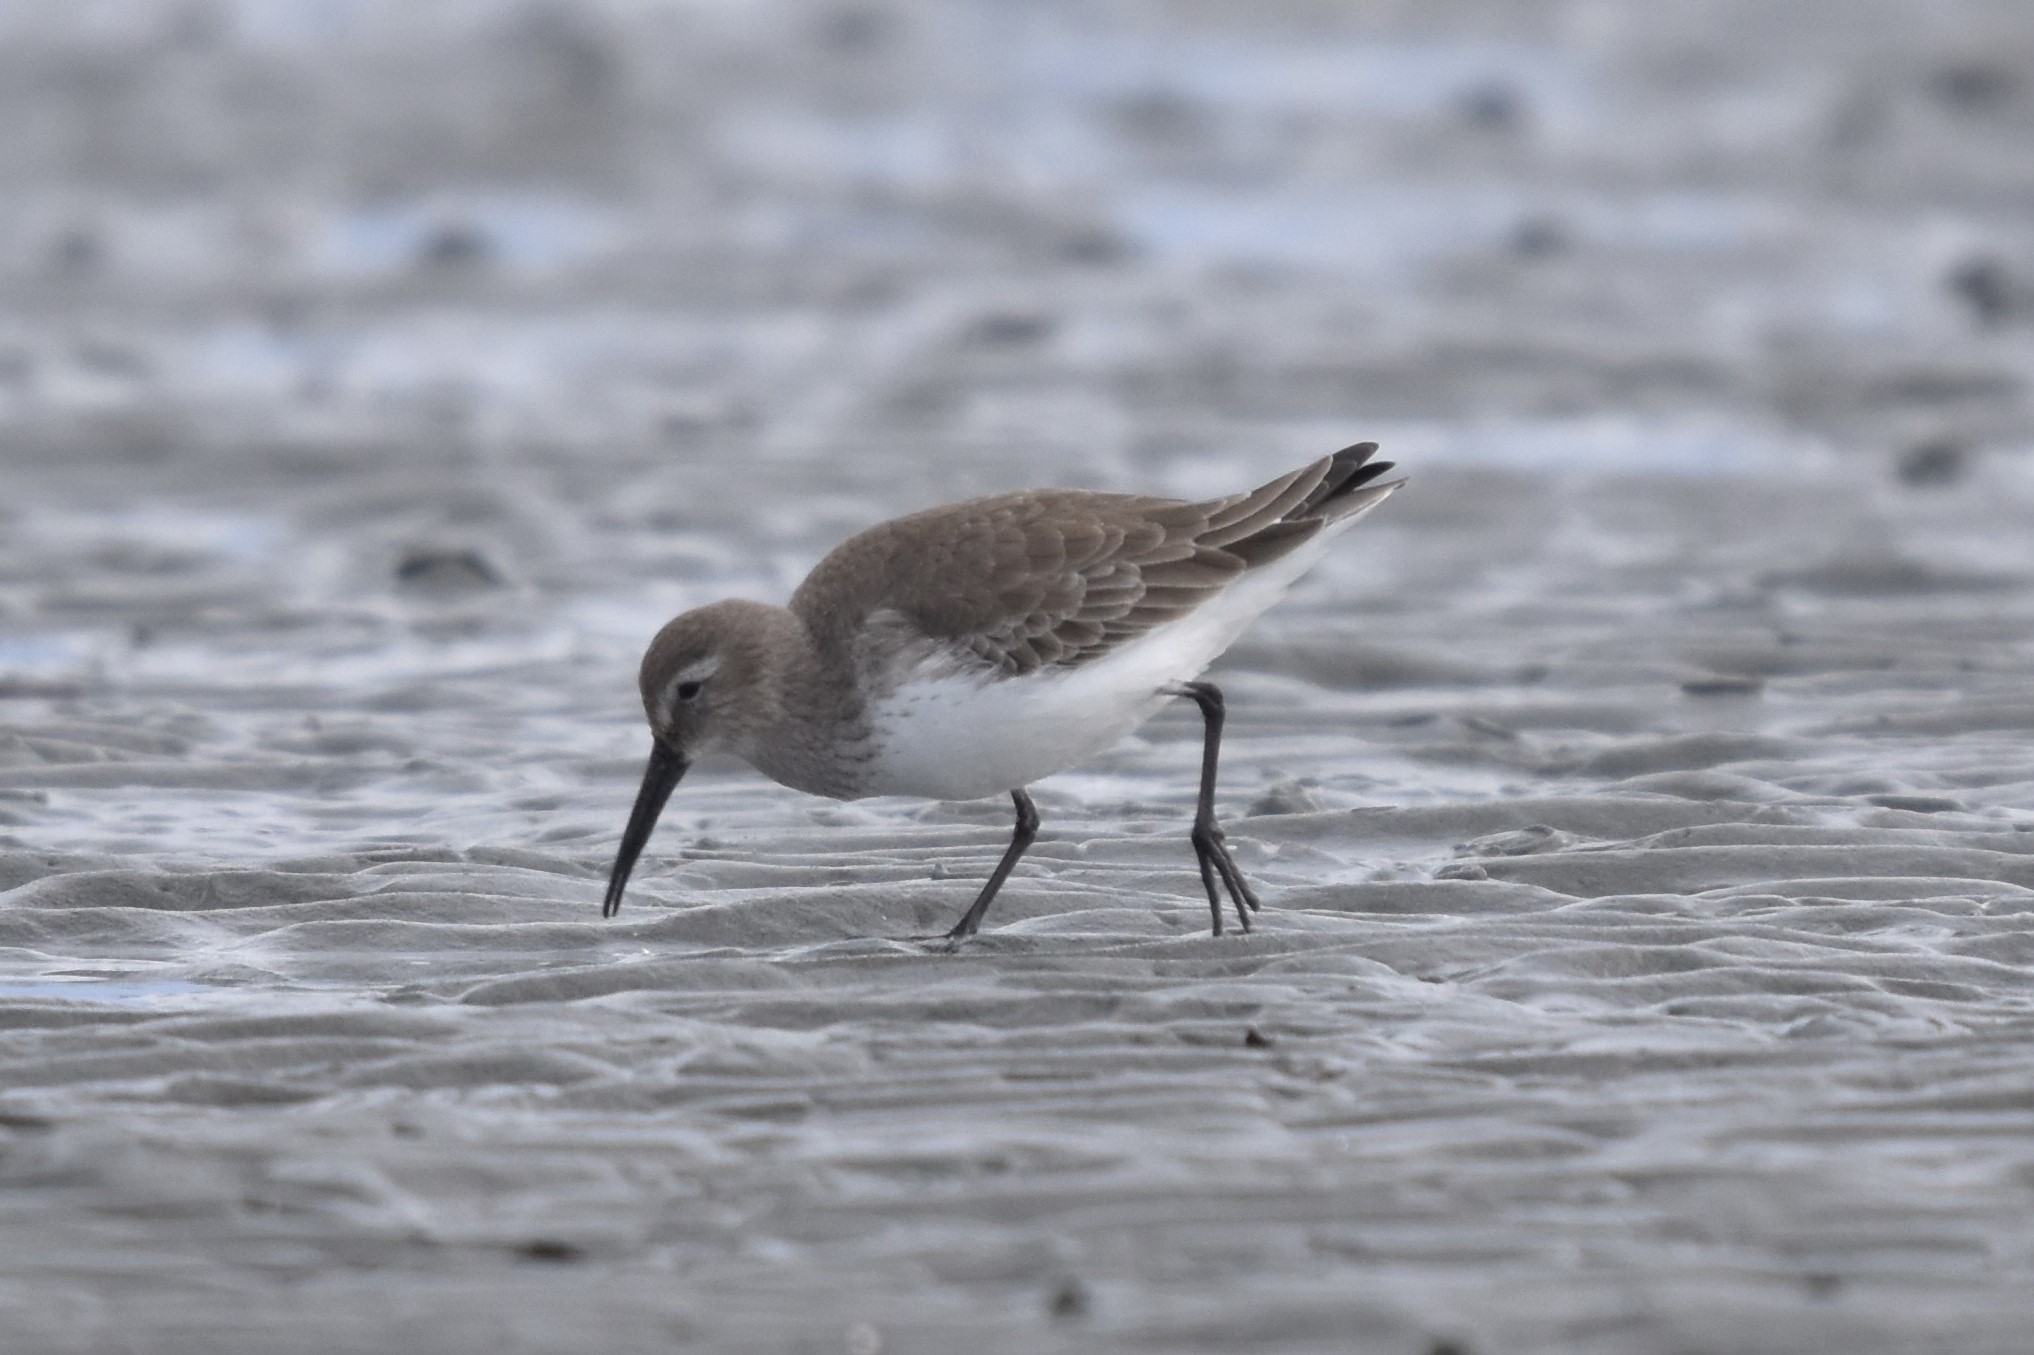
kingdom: Animalia
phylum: Chordata
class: Aves
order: Charadriiformes
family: Scolopacidae
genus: Calidris
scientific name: Calidris alpina
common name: Dunlin
